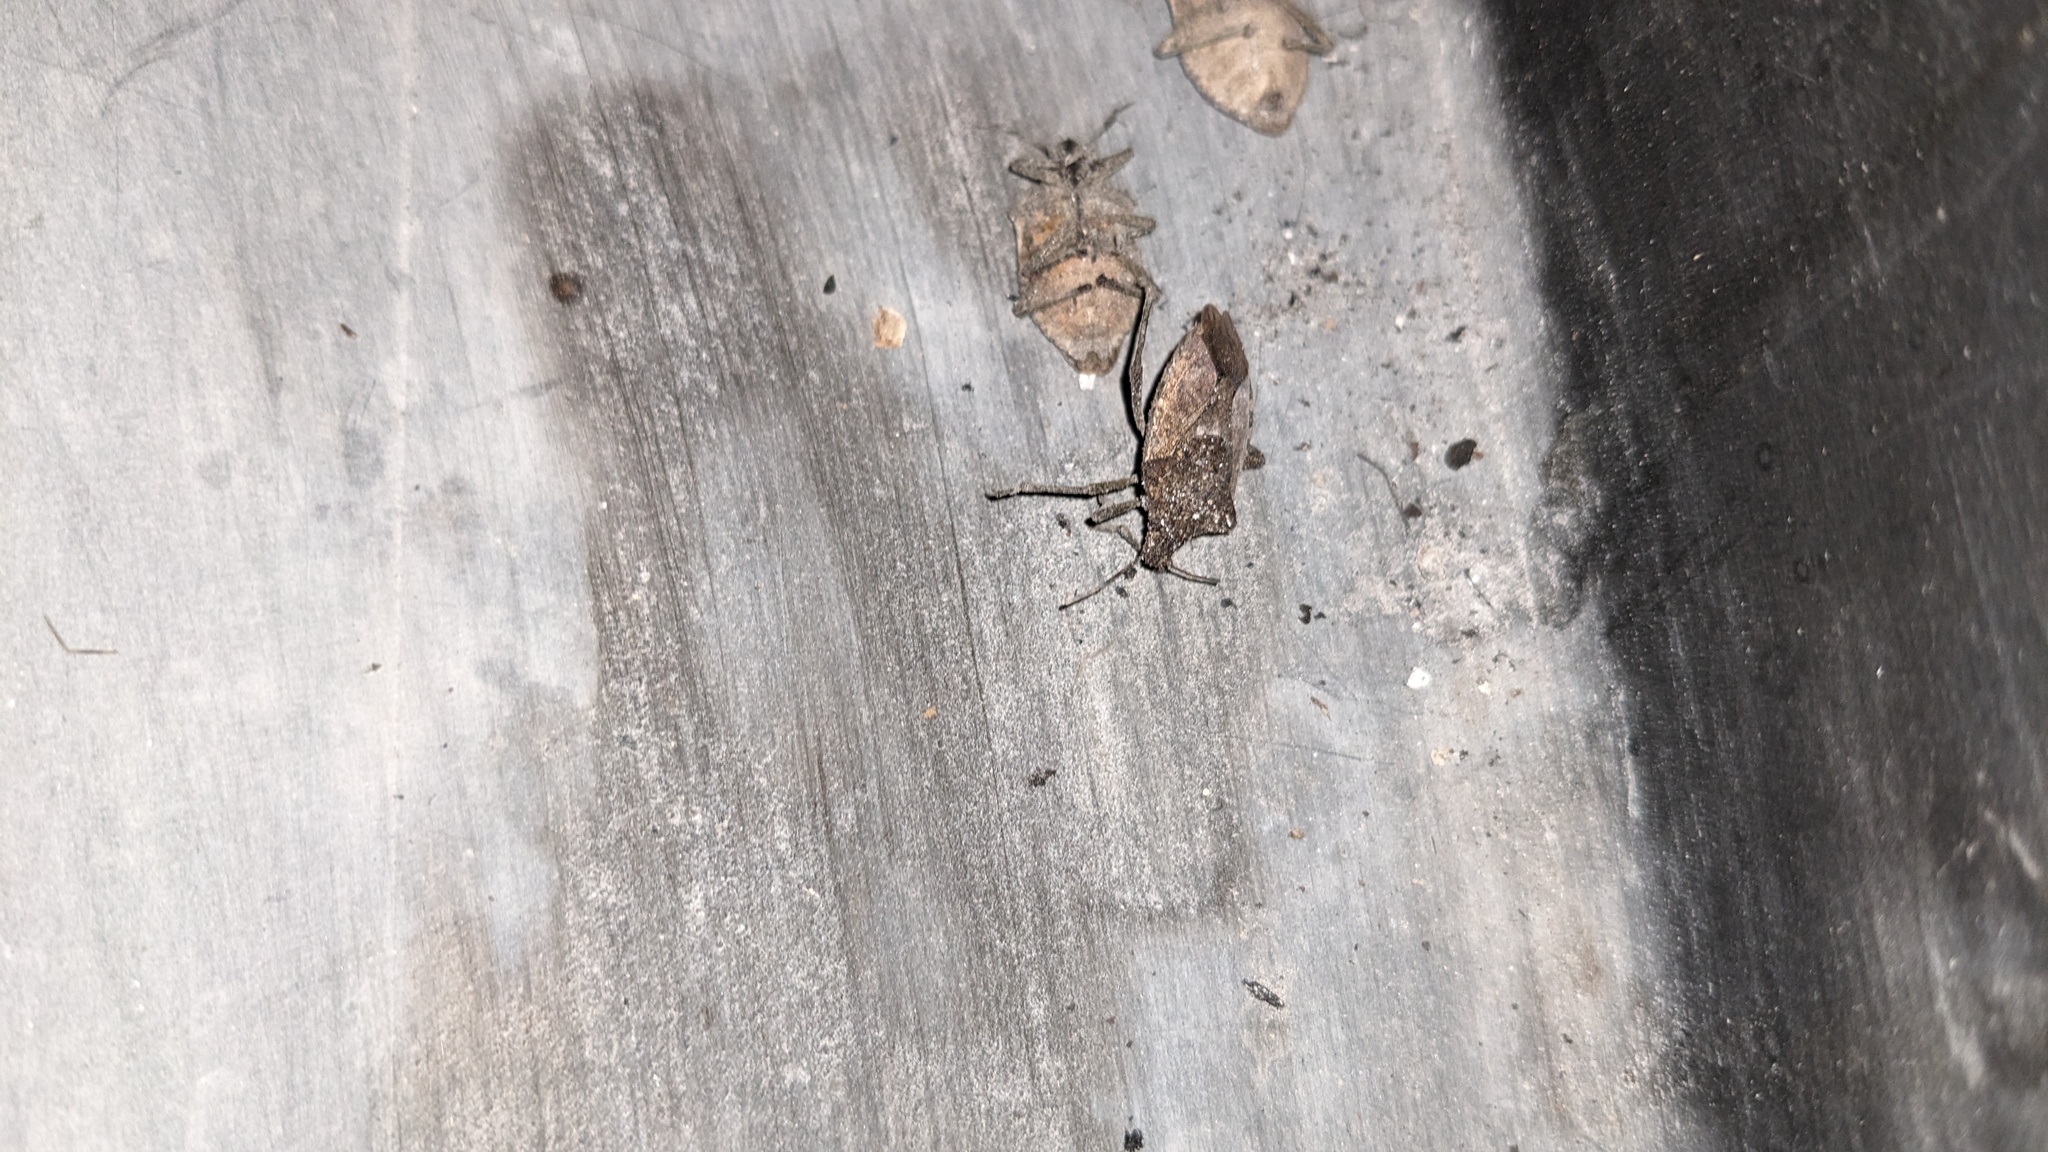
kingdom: Animalia
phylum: Arthropoda
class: Insecta
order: Hemiptera
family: Pentatomidae
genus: Halyomorpha
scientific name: Halyomorpha halys
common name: Brown marmorated stink bug
